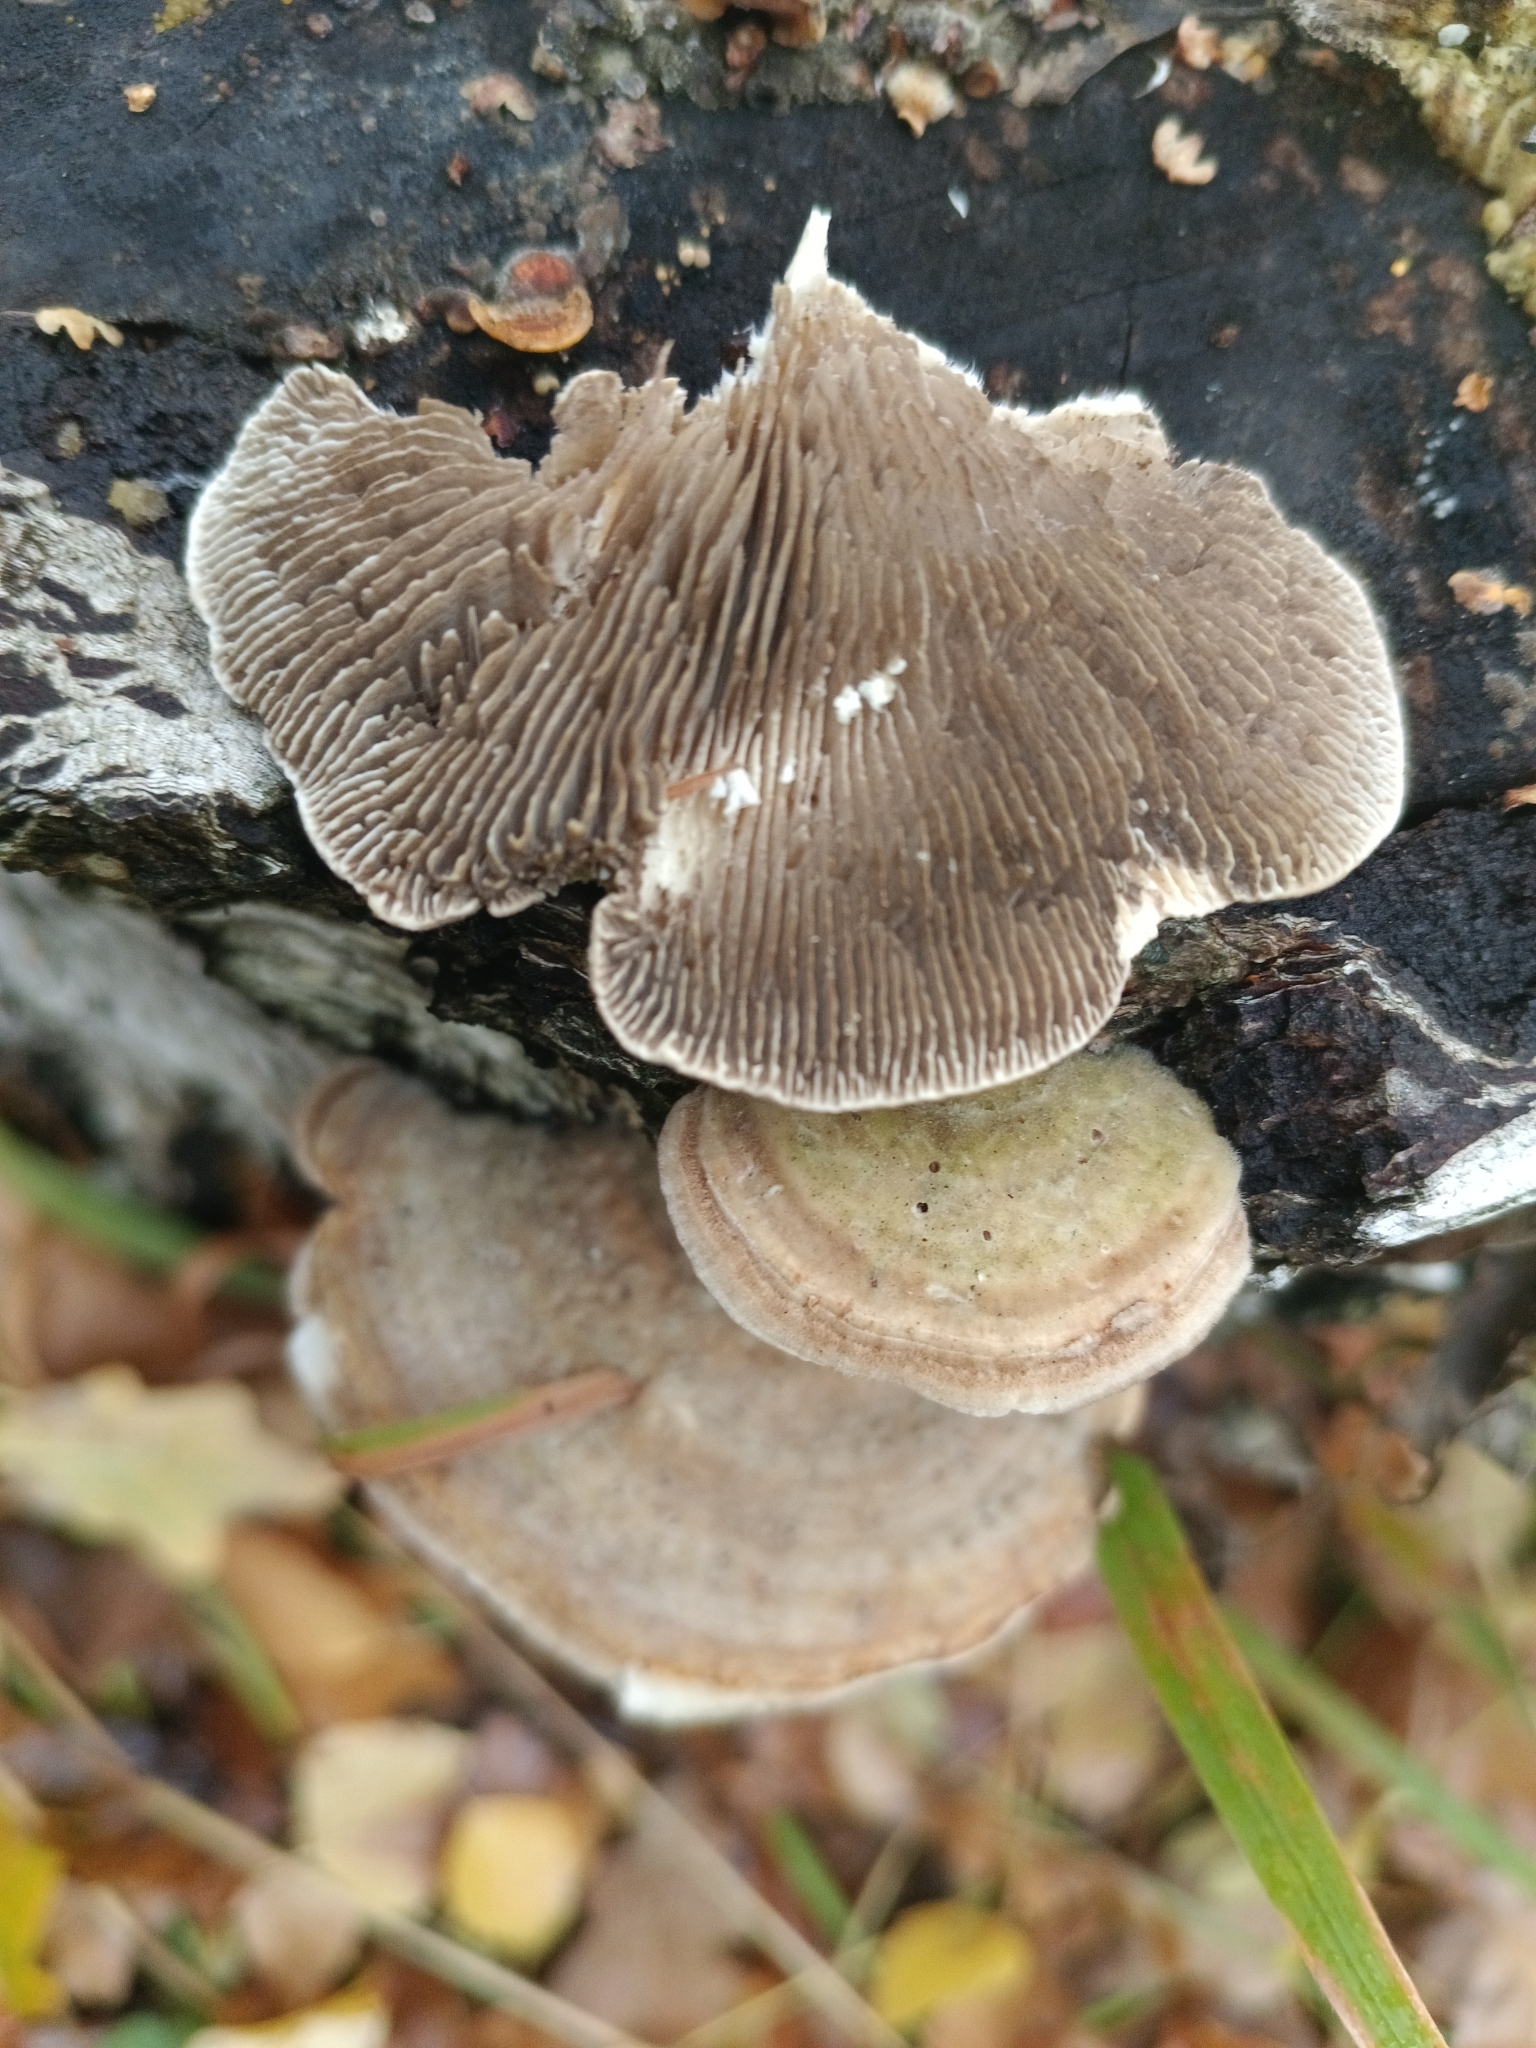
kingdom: Fungi
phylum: Basidiomycota
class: Agaricomycetes
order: Polyporales
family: Polyporaceae
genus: Lenzites
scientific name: Lenzites betulinus
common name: Birch mazegill
